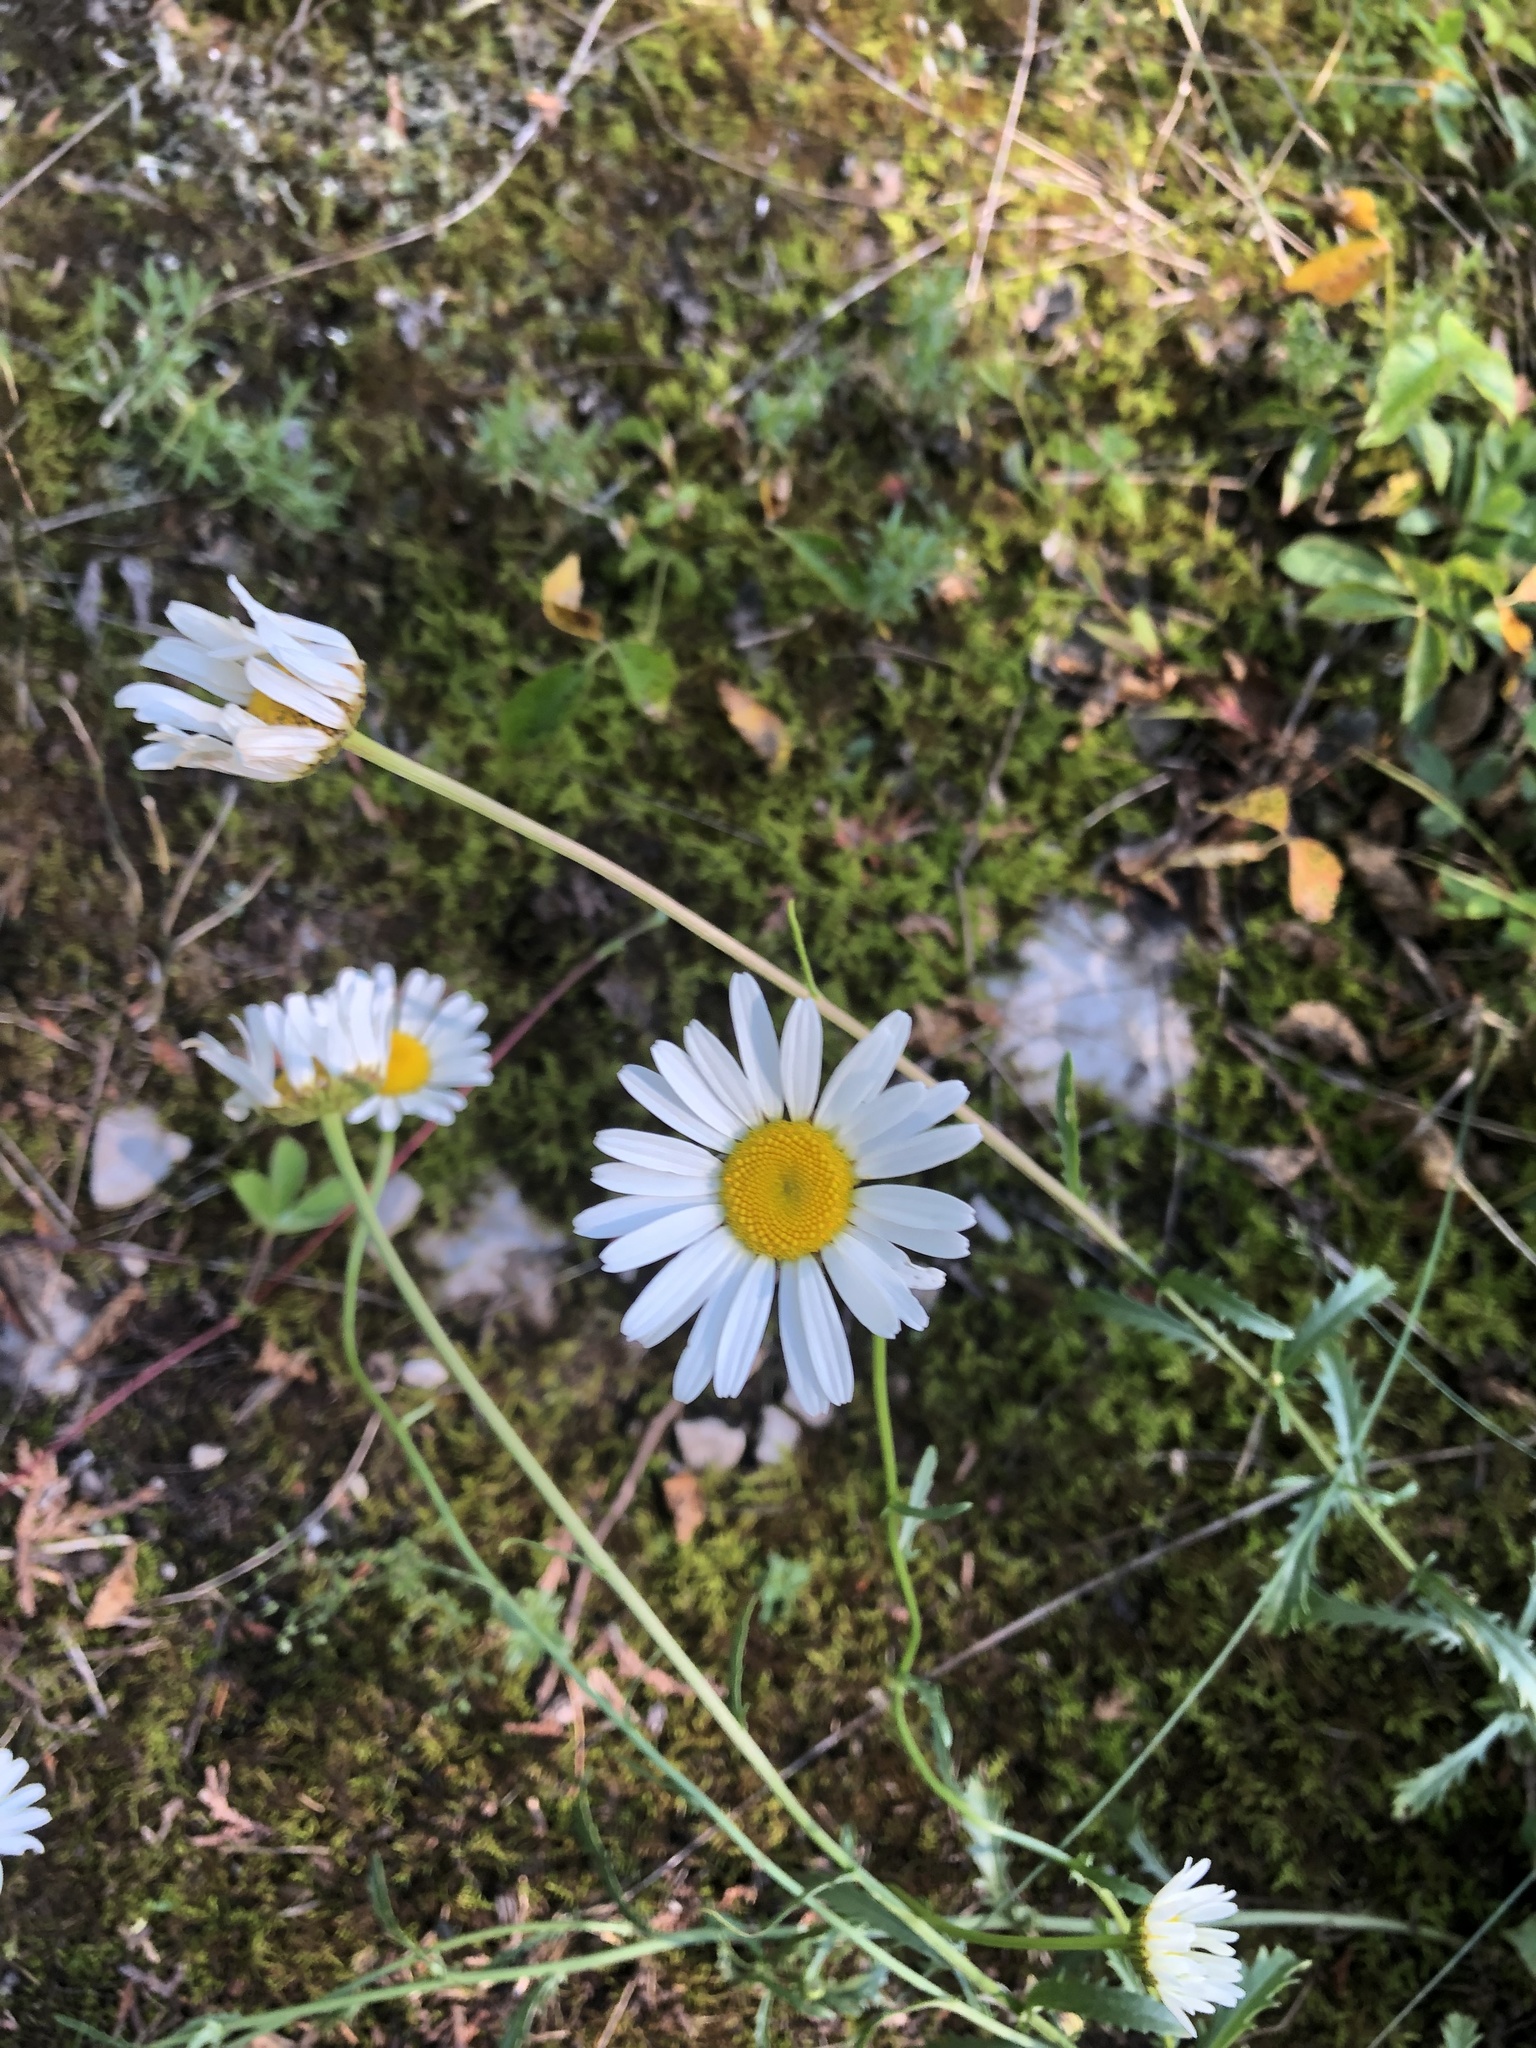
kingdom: Plantae
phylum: Tracheophyta
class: Magnoliopsida
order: Asterales
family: Asteraceae
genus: Leucanthemum
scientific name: Leucanthemum vulgare
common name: Oxeye daisy
